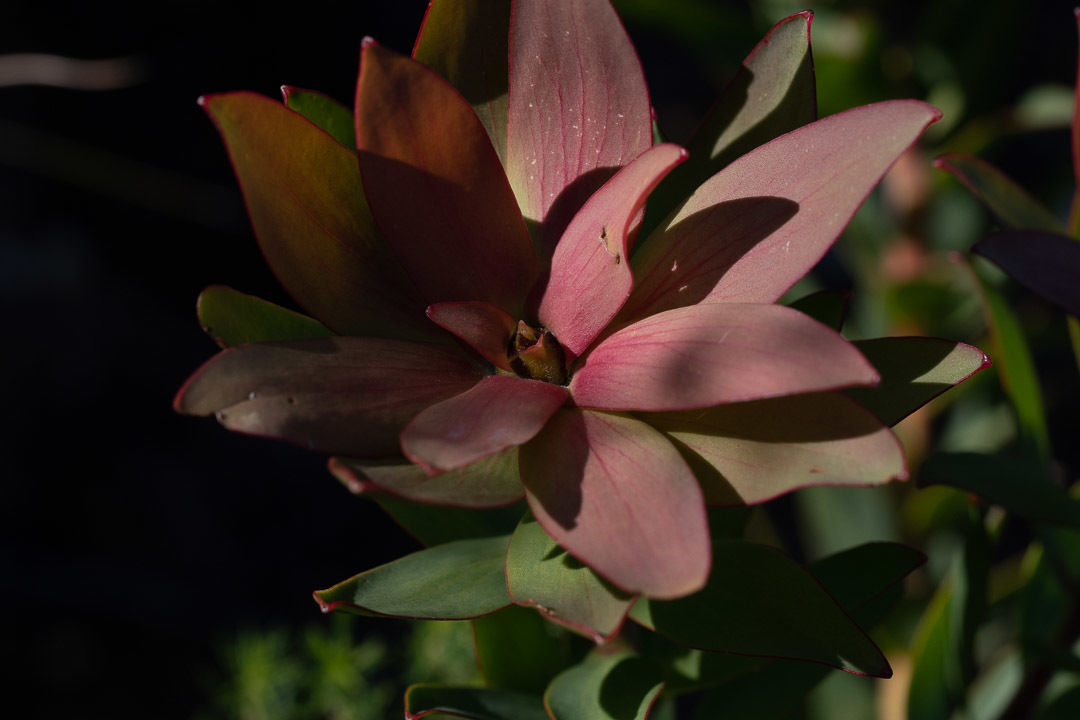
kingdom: Plantae
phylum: Tracheophyta
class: Magnoliopsida
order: Proteales
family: Proteaceae
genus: Leucadendron
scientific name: Leucadendron sessile
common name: Western sunbush
